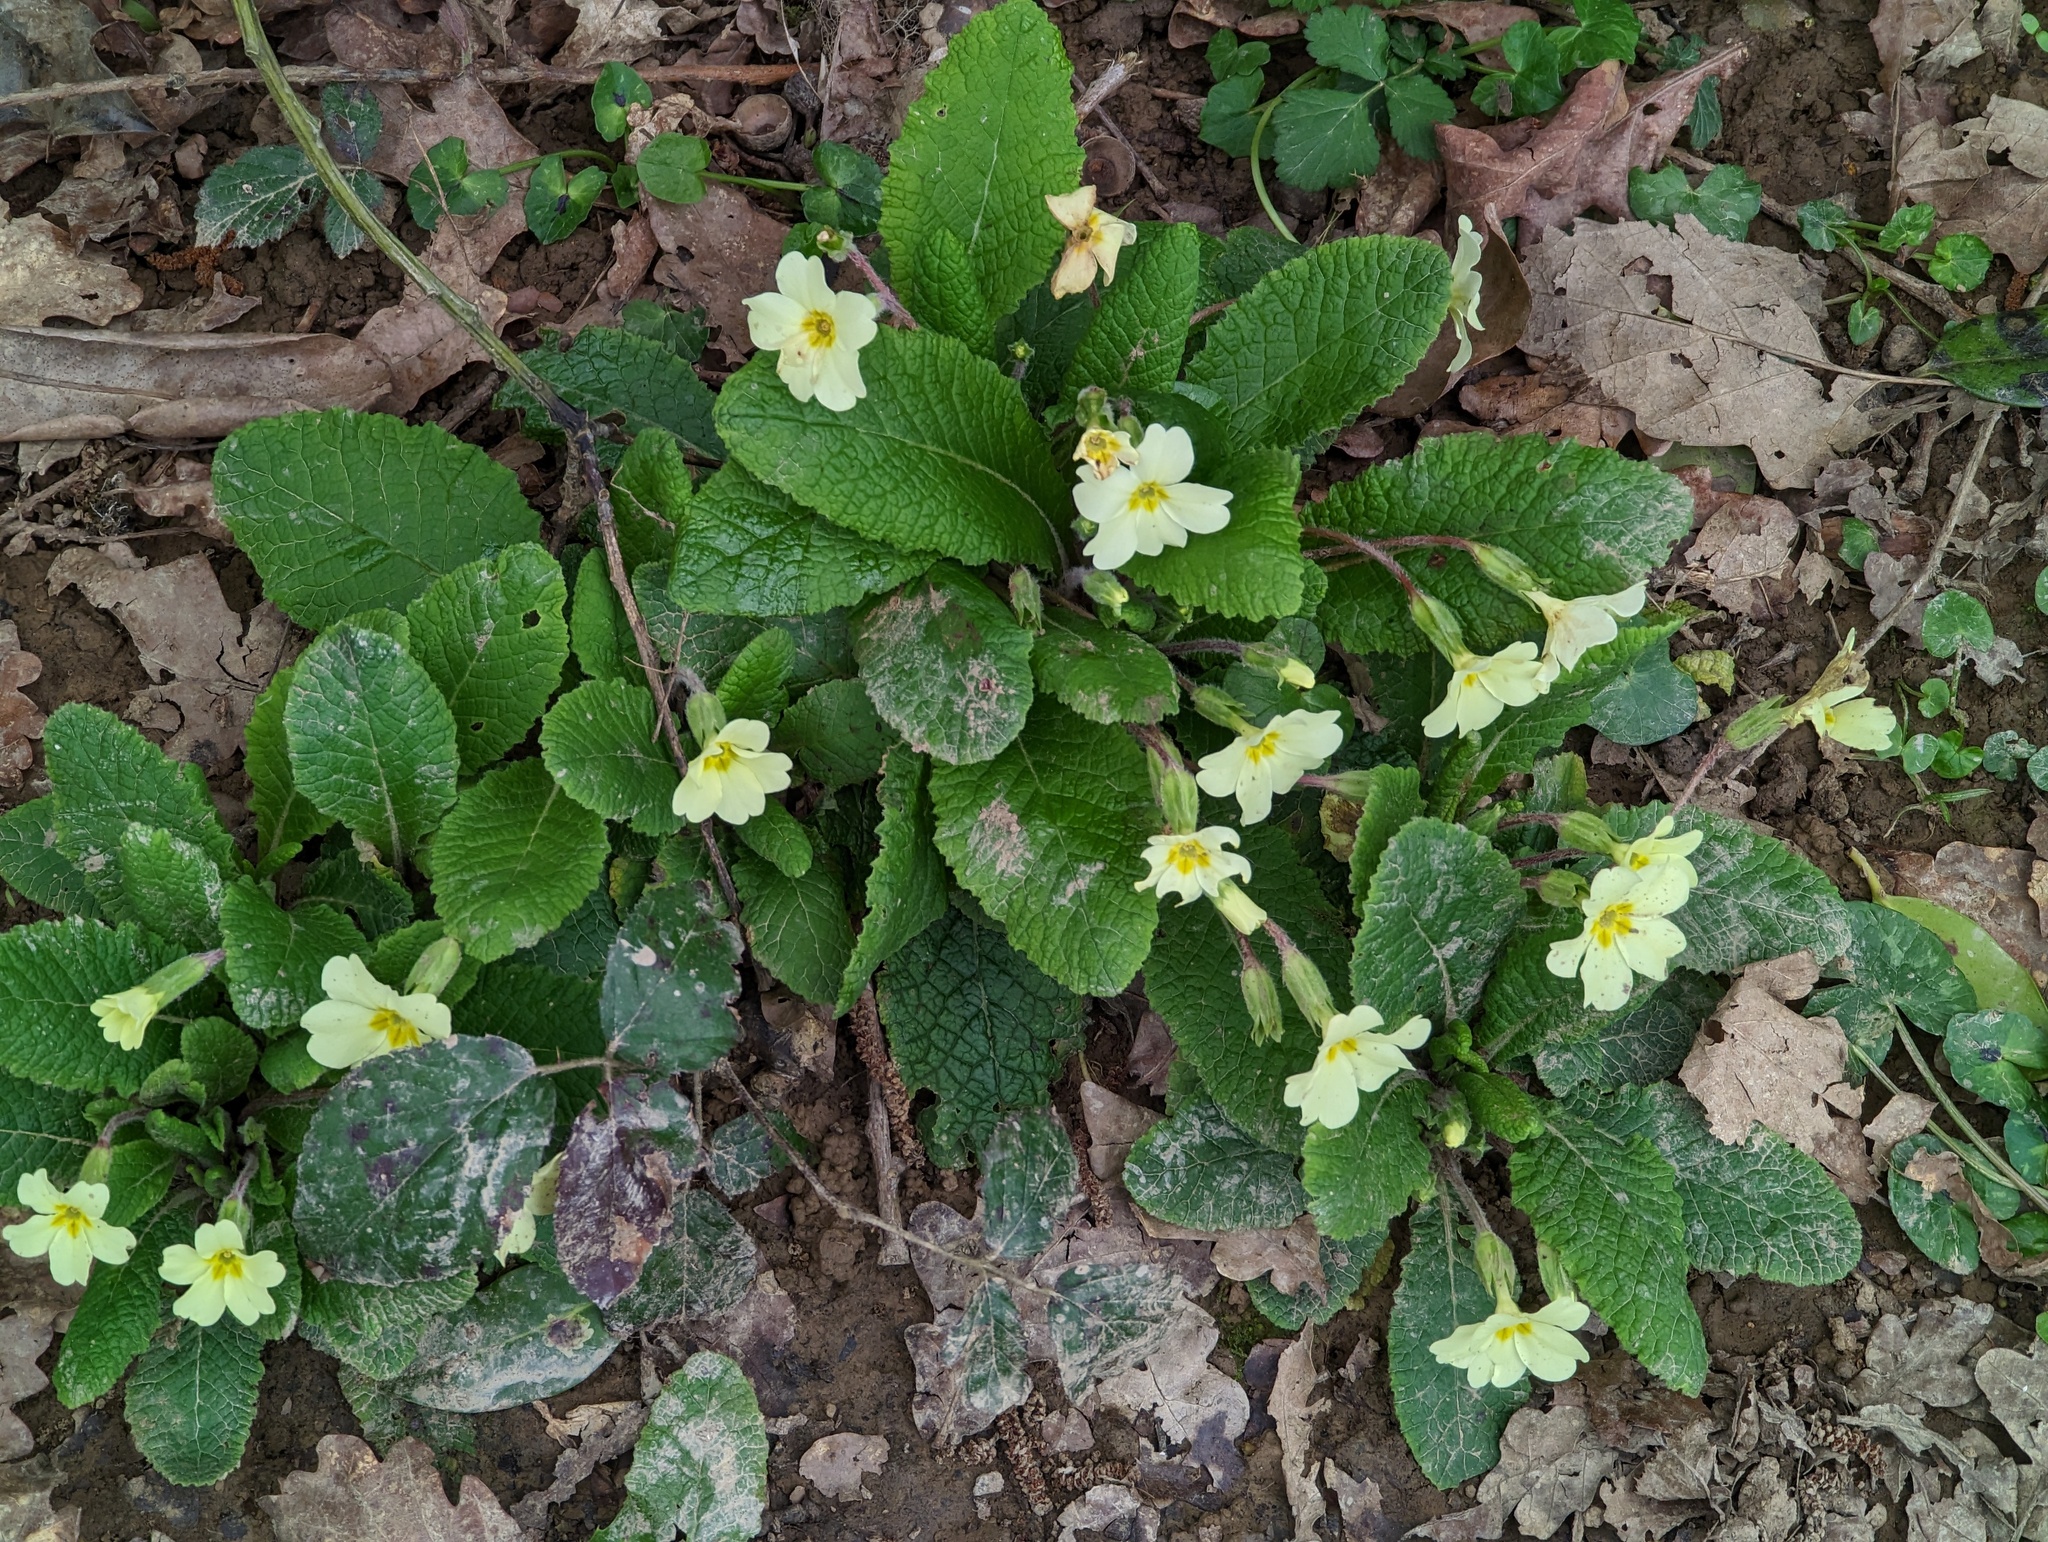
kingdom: Plantae
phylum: Tracheophyta
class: Magnoliopsida
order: Ericales
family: Primulaceae
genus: Primula
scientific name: Primula vulgaris
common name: Primrose
